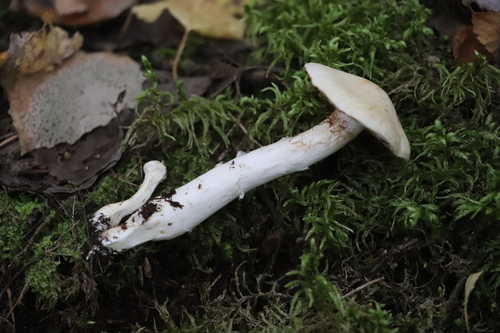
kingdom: Fungi
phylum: Basidiomycota
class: Agaricomycetes
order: Agaricales
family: Cortinariaceae
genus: Phlegmacium
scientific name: Phlegmacium argutum
